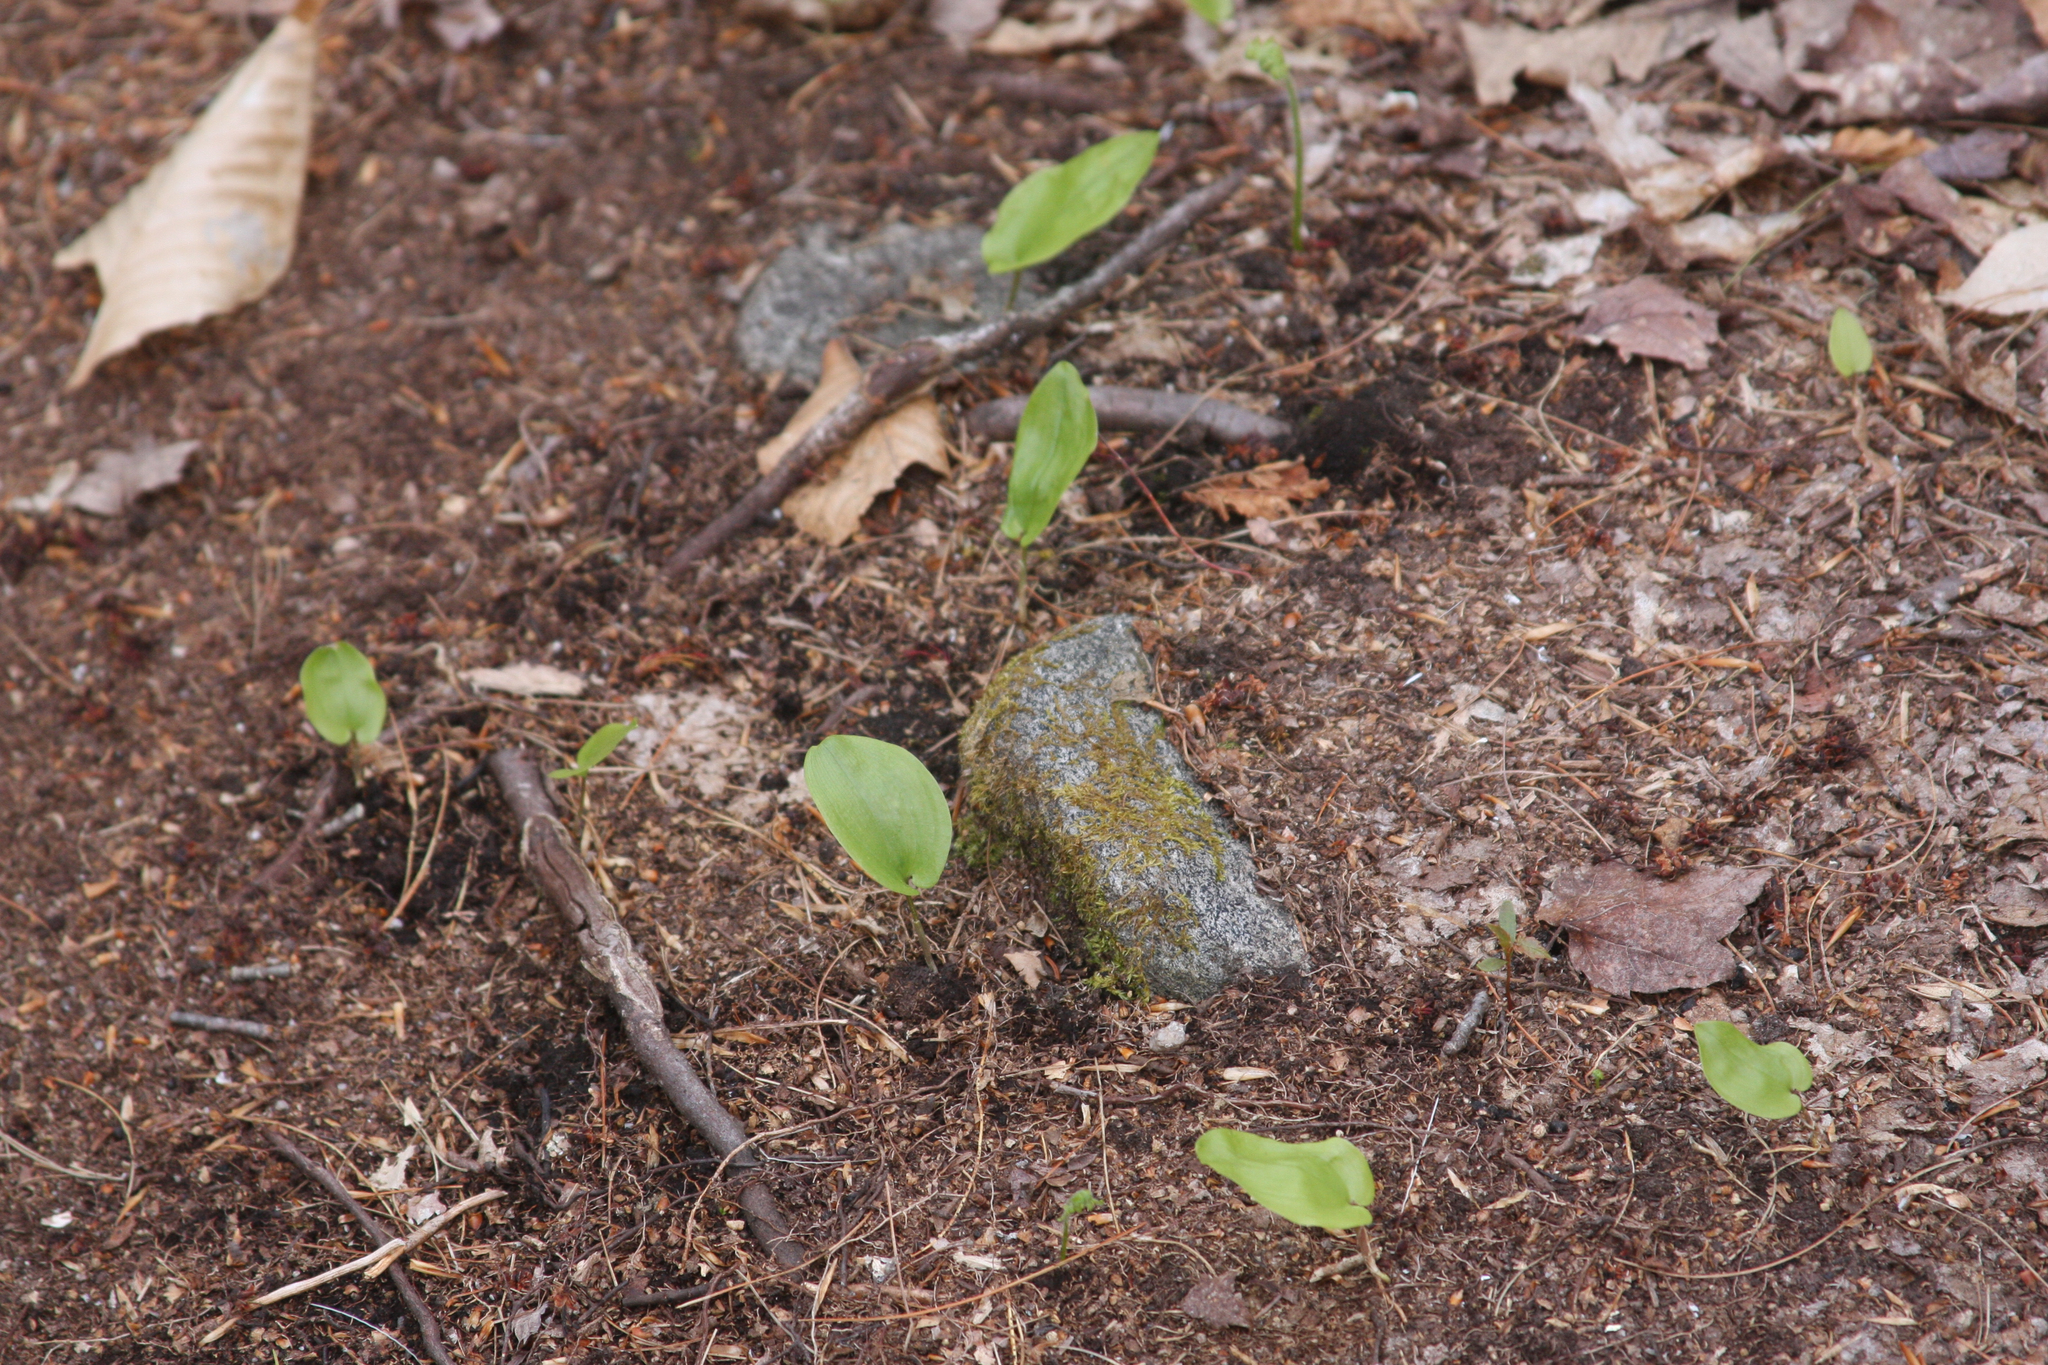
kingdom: Plantae
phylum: Tracheophyta
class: Liliopsida
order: Asparagales
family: Asparagaceae
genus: Maianthemum
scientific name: Maianthemum canadense
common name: False lily-of-the-valley
